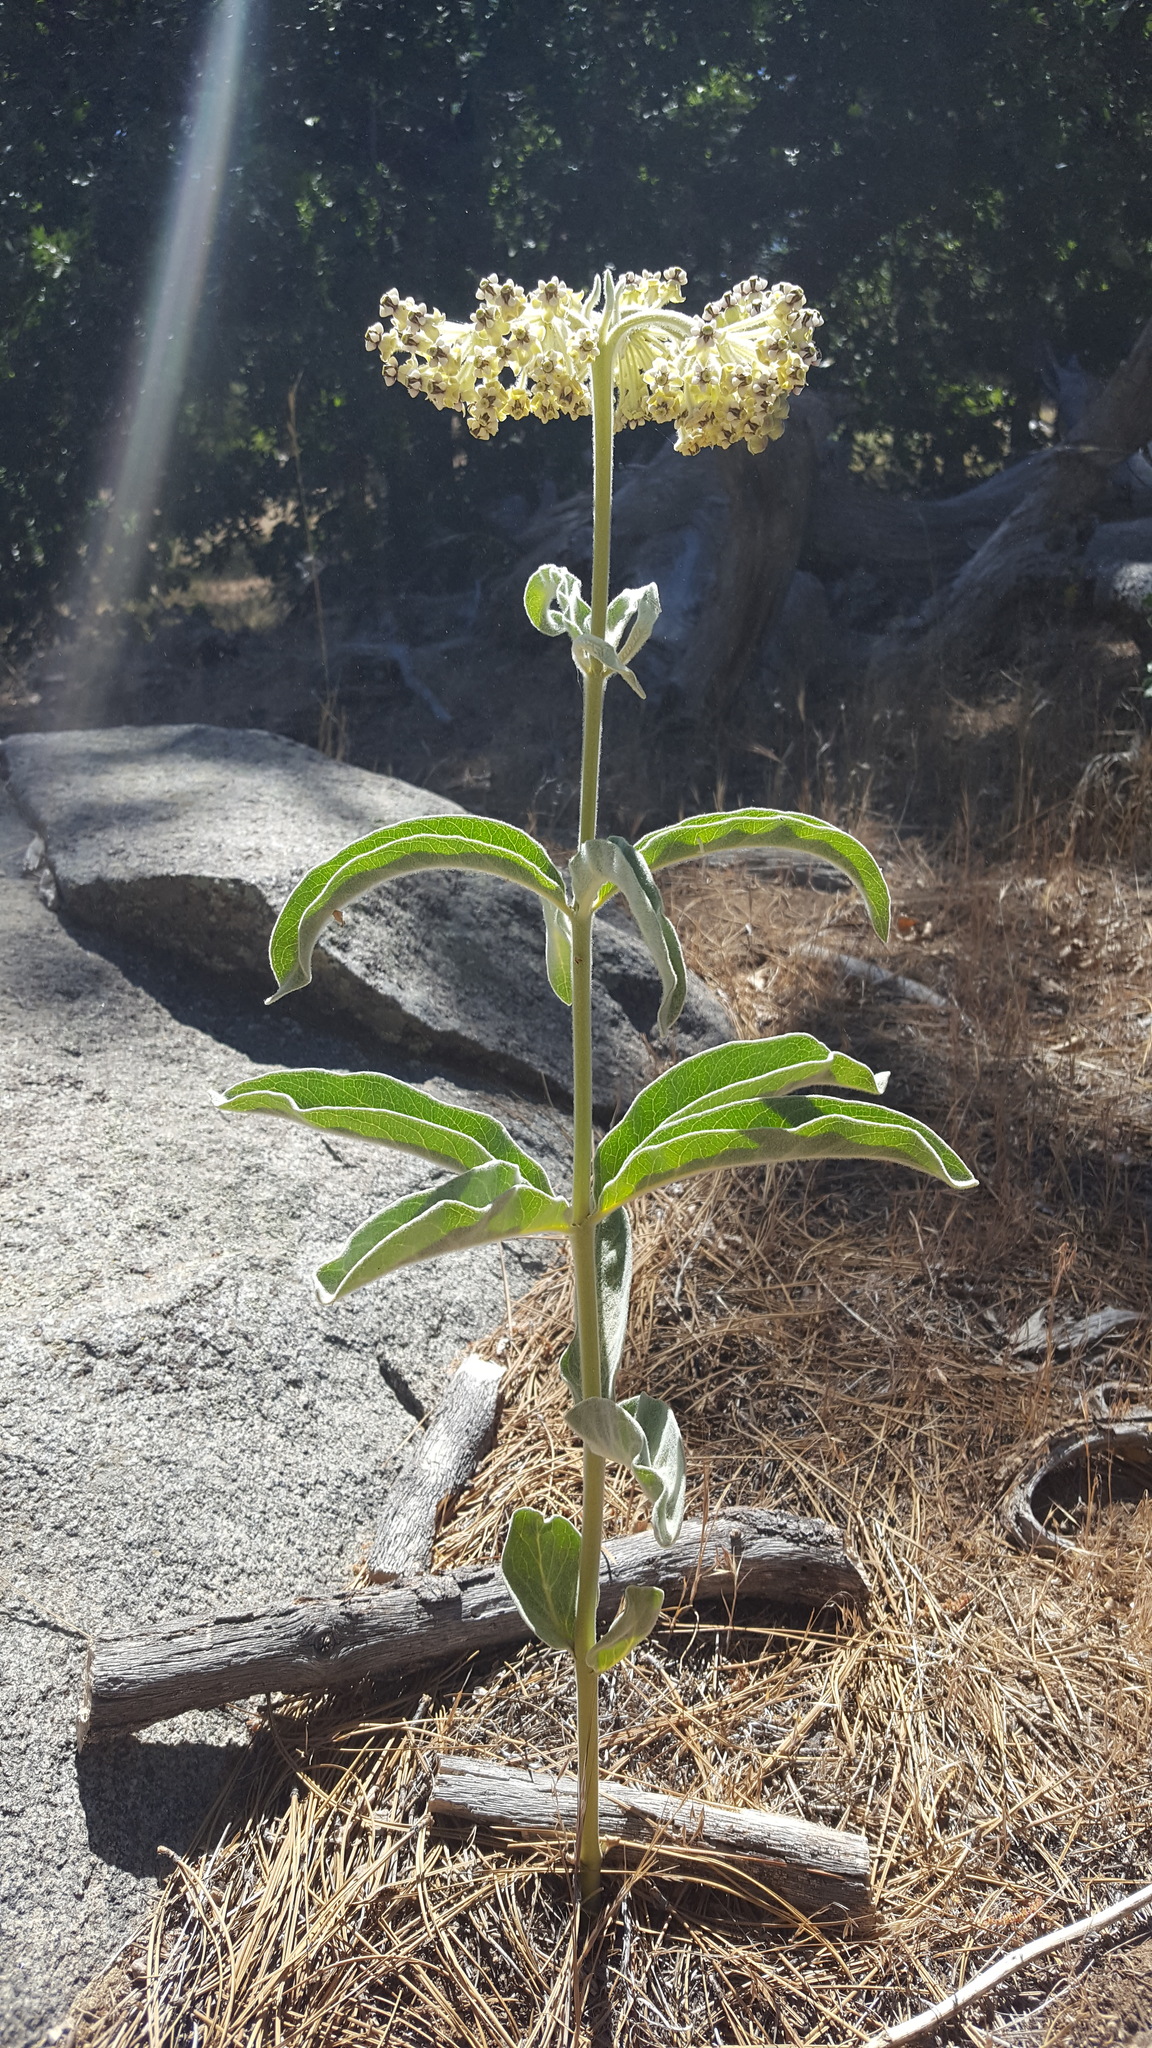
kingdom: Plantae
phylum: Tracheophyta
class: Magnoliopsida
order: Gentianales
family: Apocynaceae
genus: Asclepias
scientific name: Asclepias eriocarpa
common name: Indian milkweed
